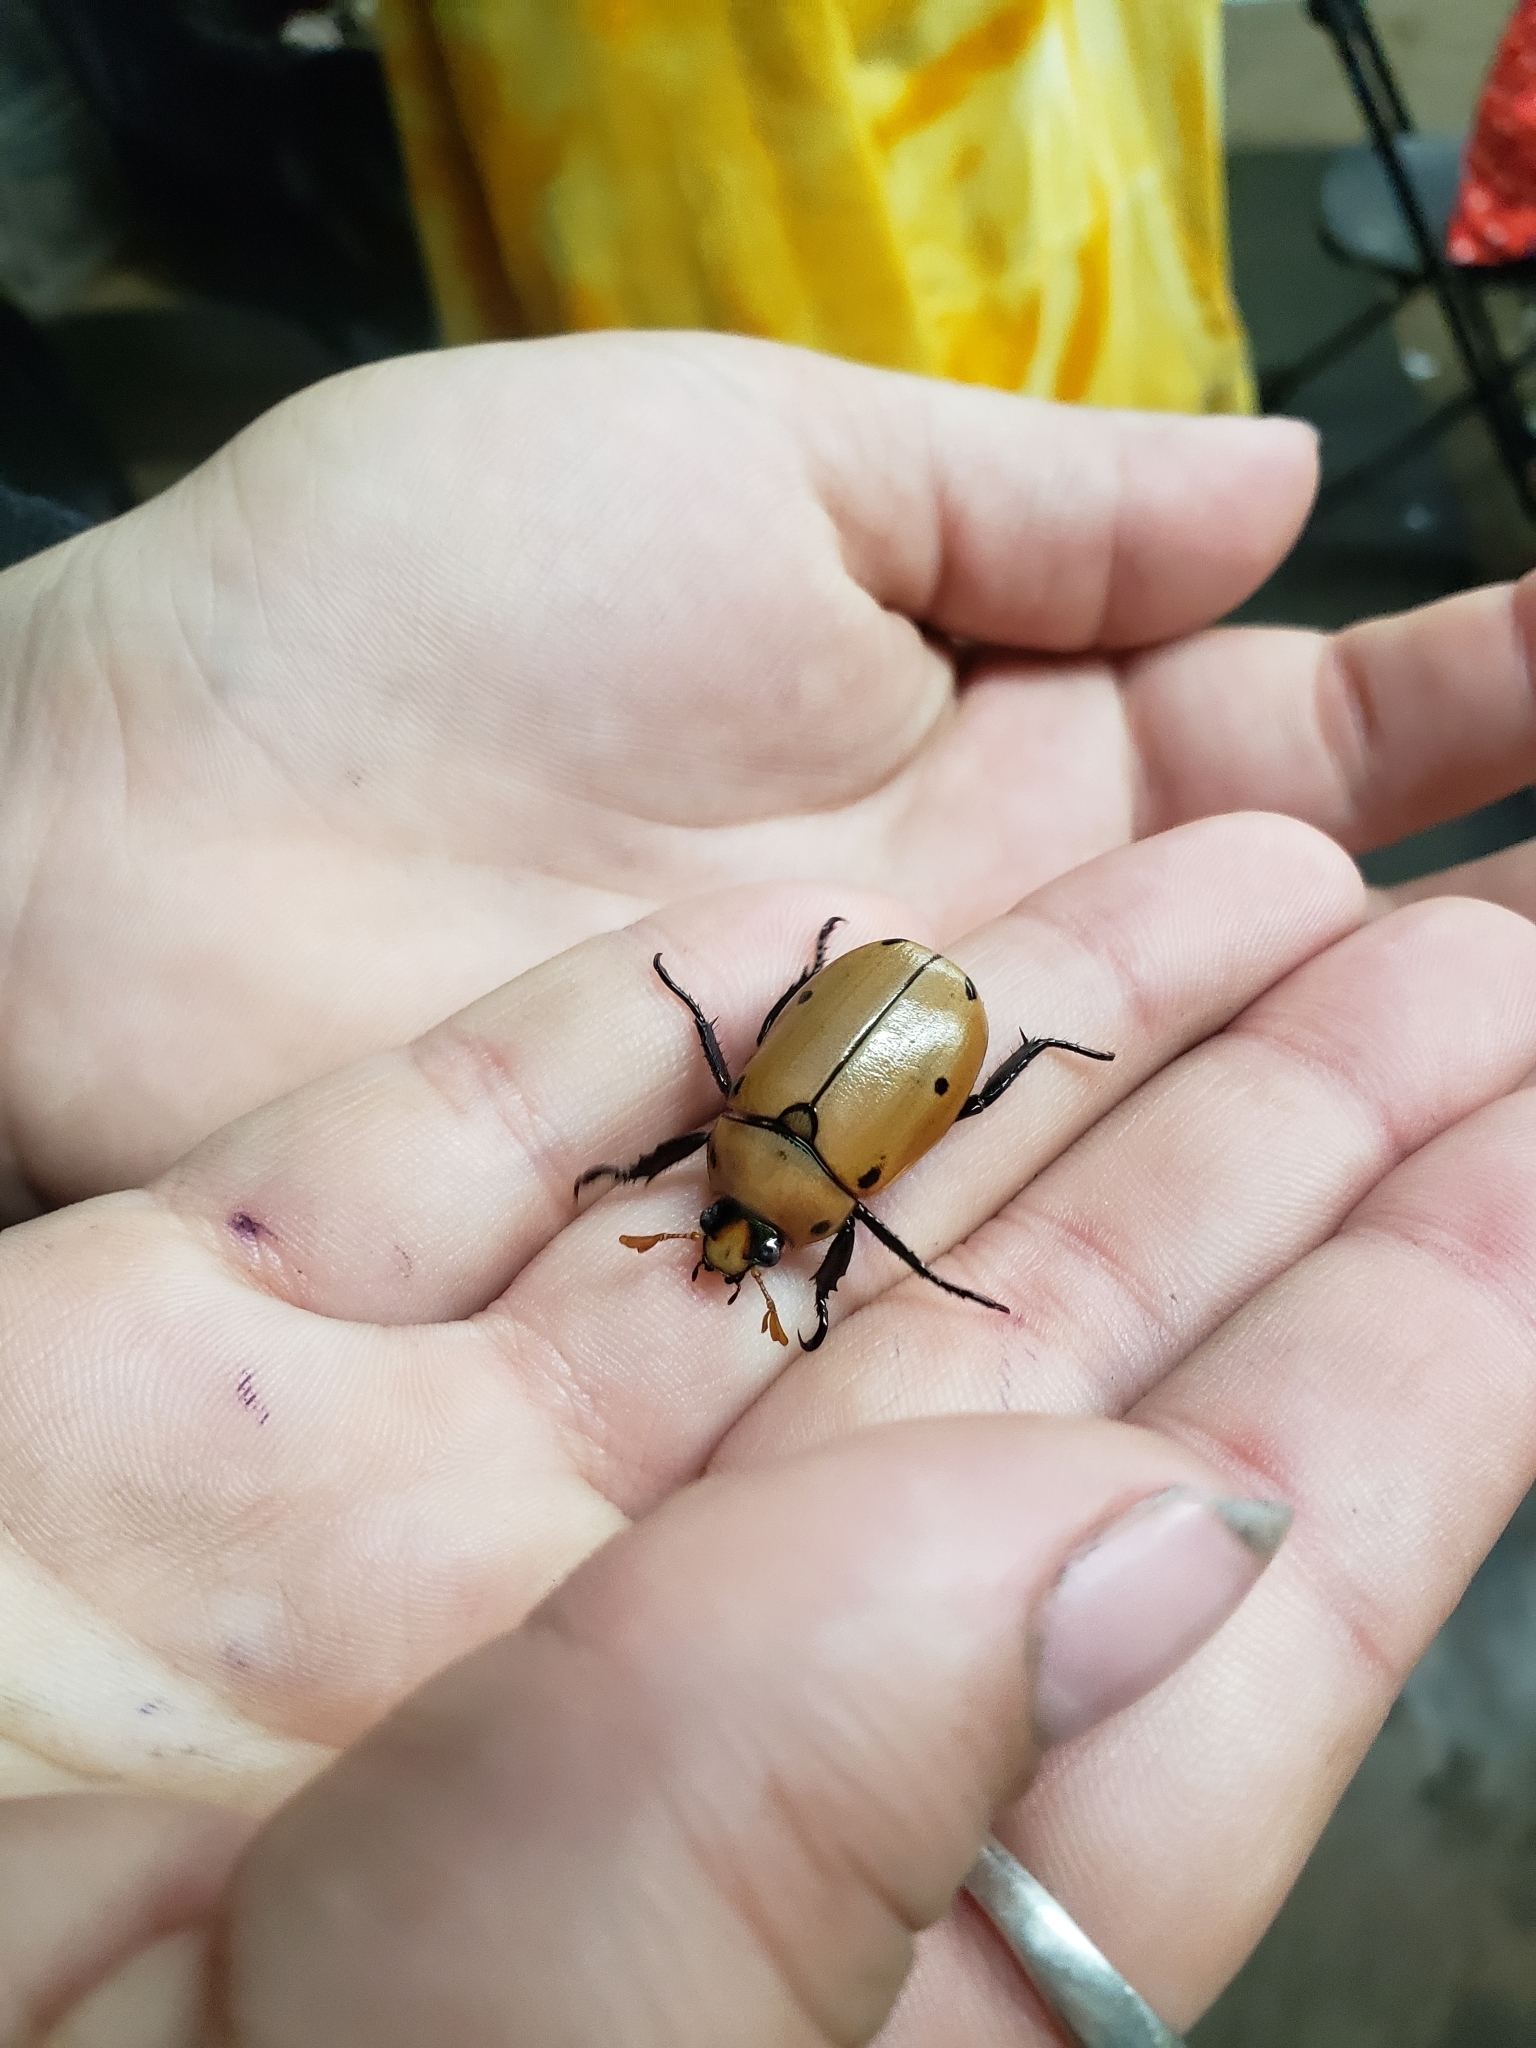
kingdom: Animalia
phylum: Arthropoda
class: Insecta
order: Coleoptera
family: Scarabaeidae
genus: Pelidnota
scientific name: Pelidnota punctata
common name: Grapevine beetle
